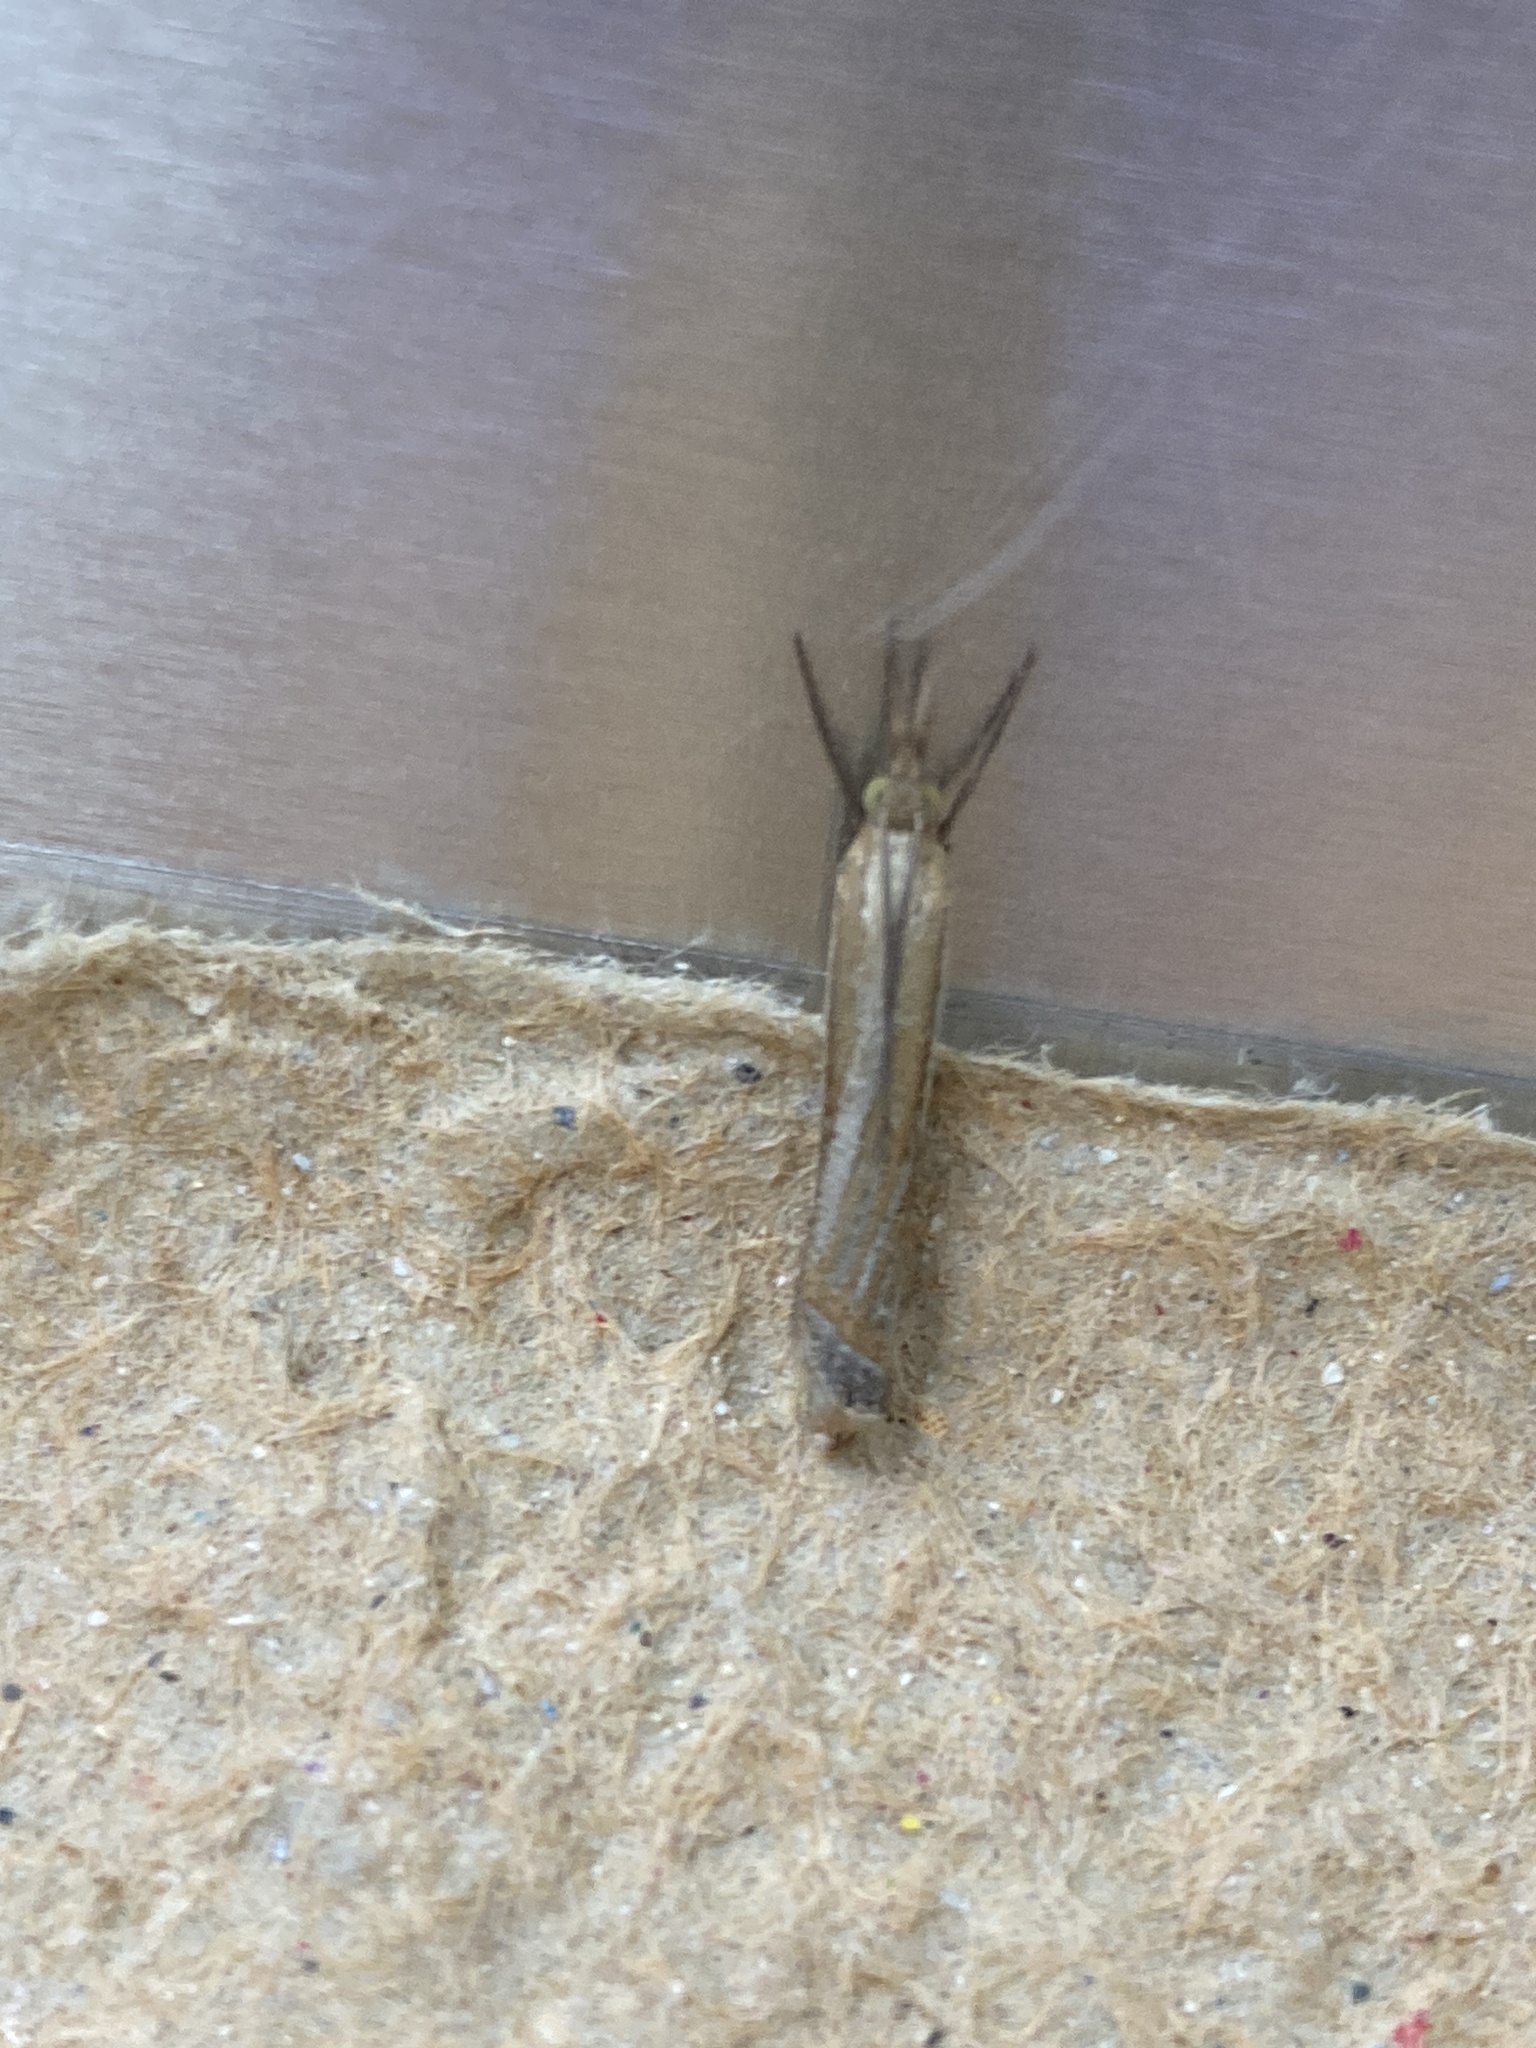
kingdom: Animalia
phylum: Arthropoda
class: Insecta
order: Lepidoptera
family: Crambidae
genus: Crambus
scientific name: Crambus pascuella
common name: Inlaid grass-veneer
